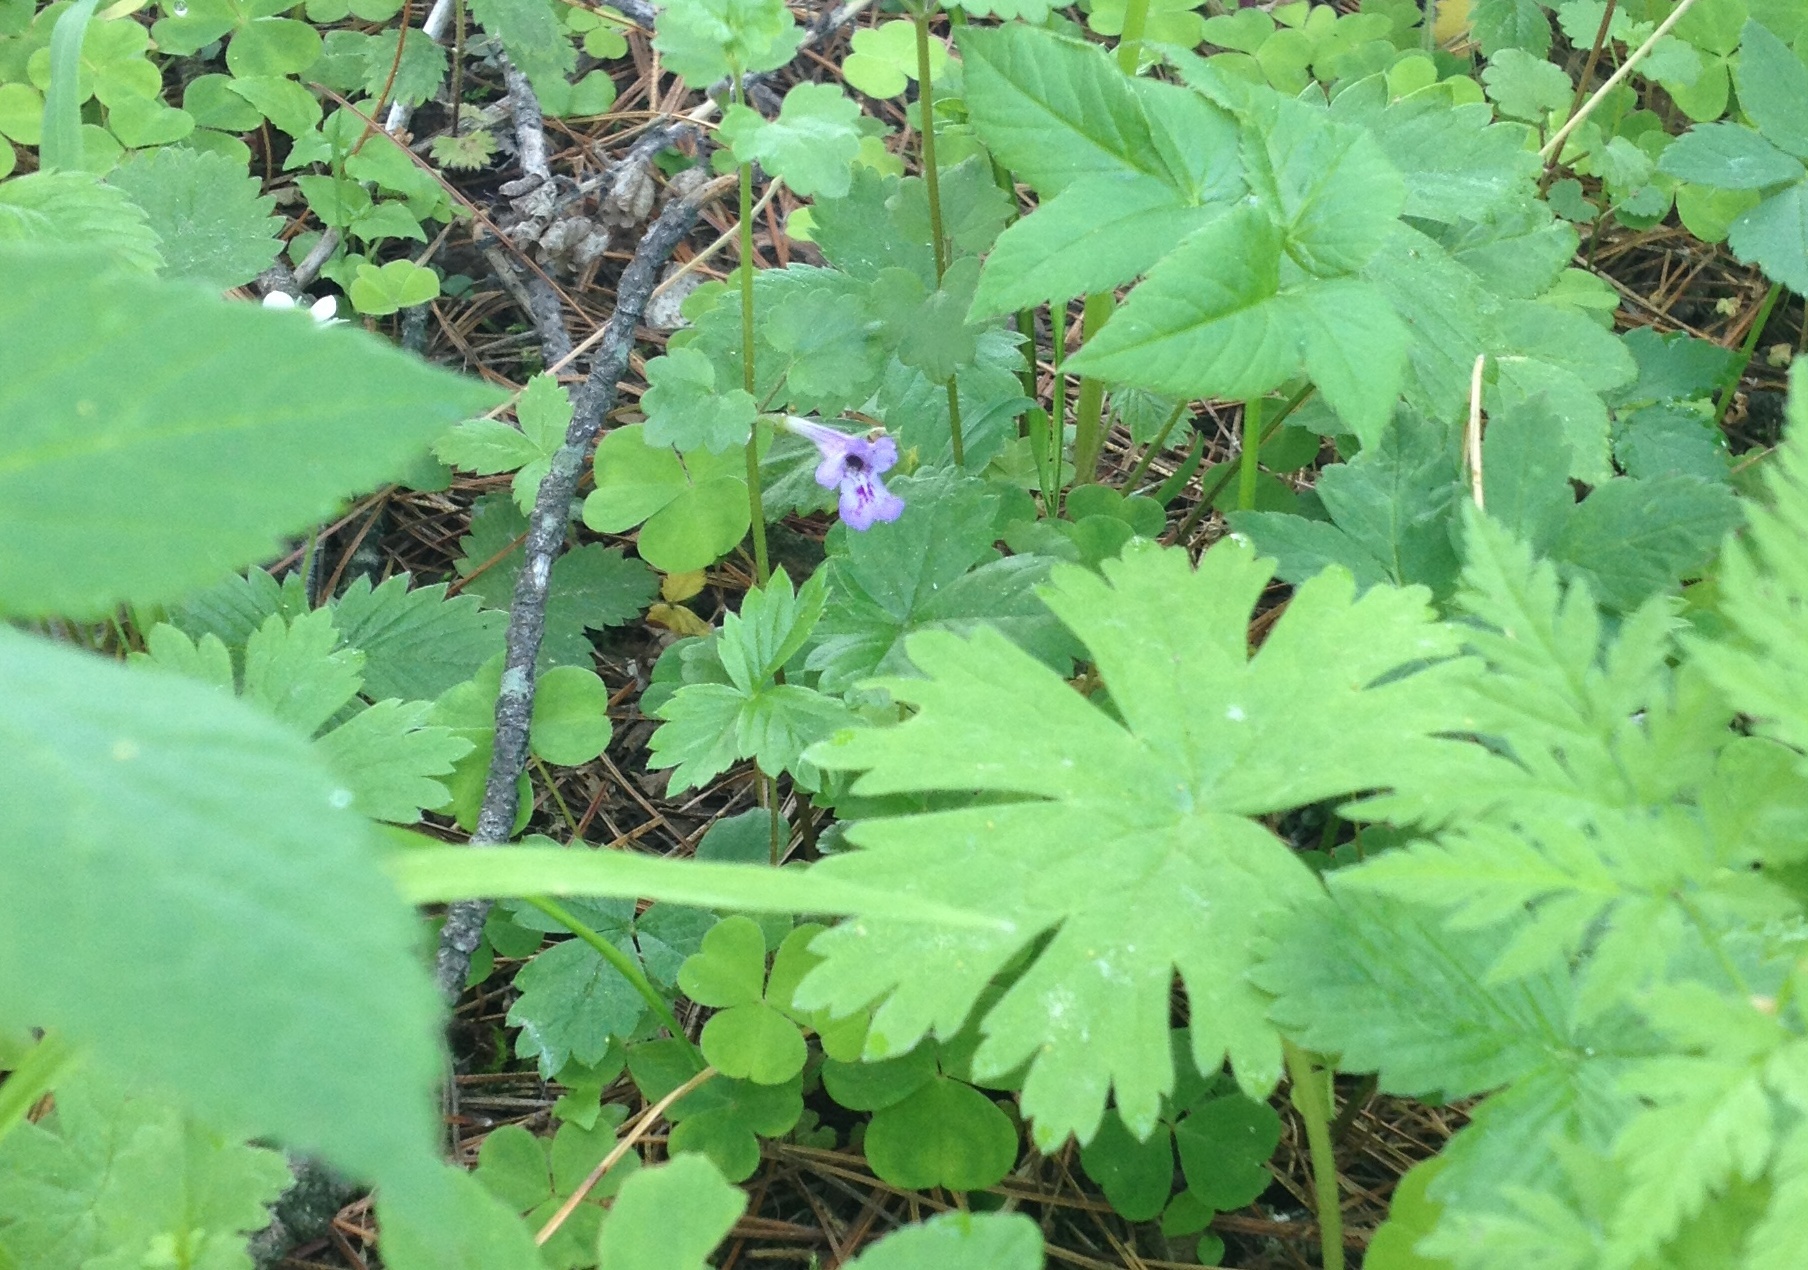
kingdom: Plantae
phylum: Tracheophyta
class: Magnoliopsida
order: Lamiales
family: Lamiaceae
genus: Glechoma
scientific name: Glechoma hederacea
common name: Ground ivy
